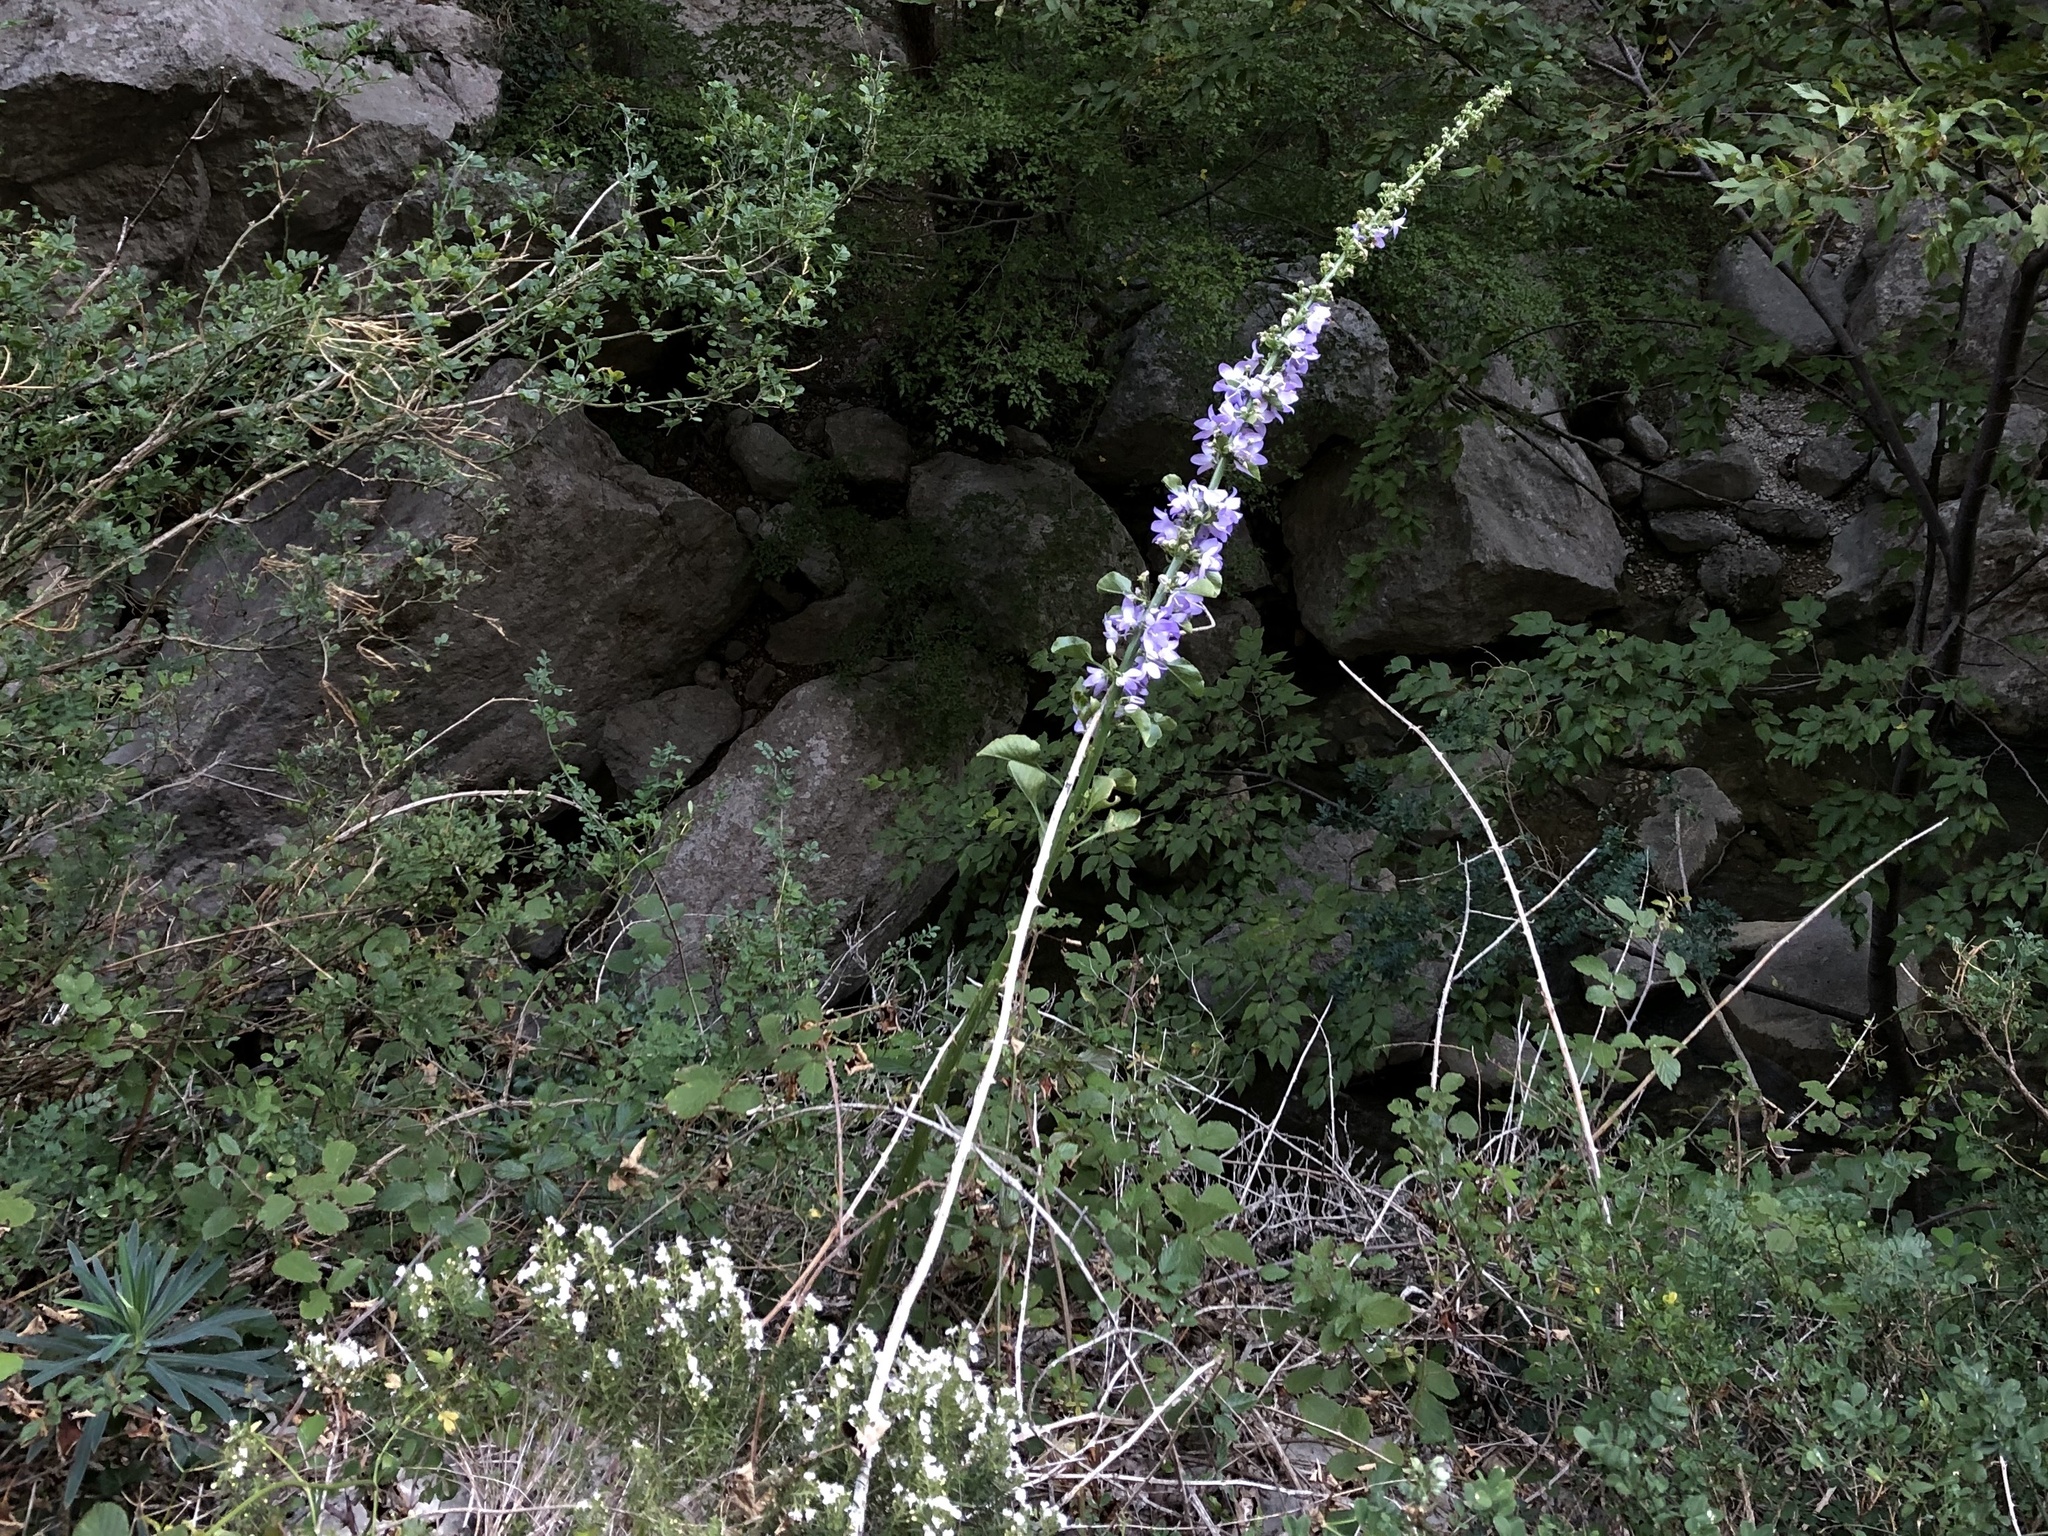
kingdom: Plantae
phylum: Tracheophyta
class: Magnoliopsida
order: Asterales
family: Campanulaceae
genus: Campanula
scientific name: Campanula pyramidalis
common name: Chimney bellflower
